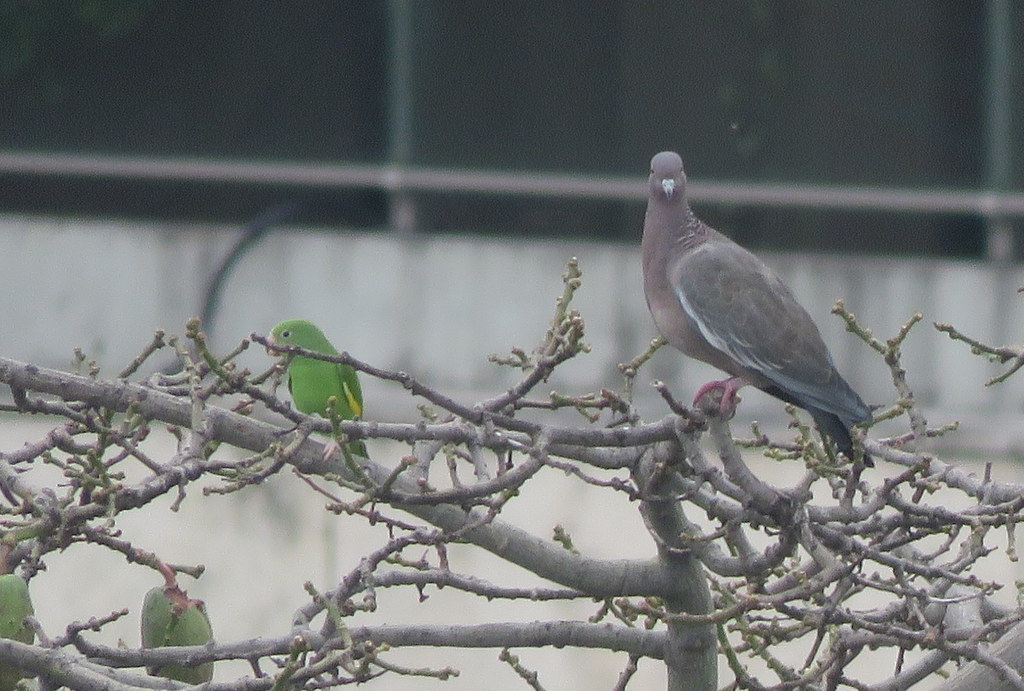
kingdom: Animalia
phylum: Chordata
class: Aves
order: Psittaciformes
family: Psittacidae
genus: Brotogeris
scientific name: Brotogeris chiriri
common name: Yellow-chevroned parakeet
